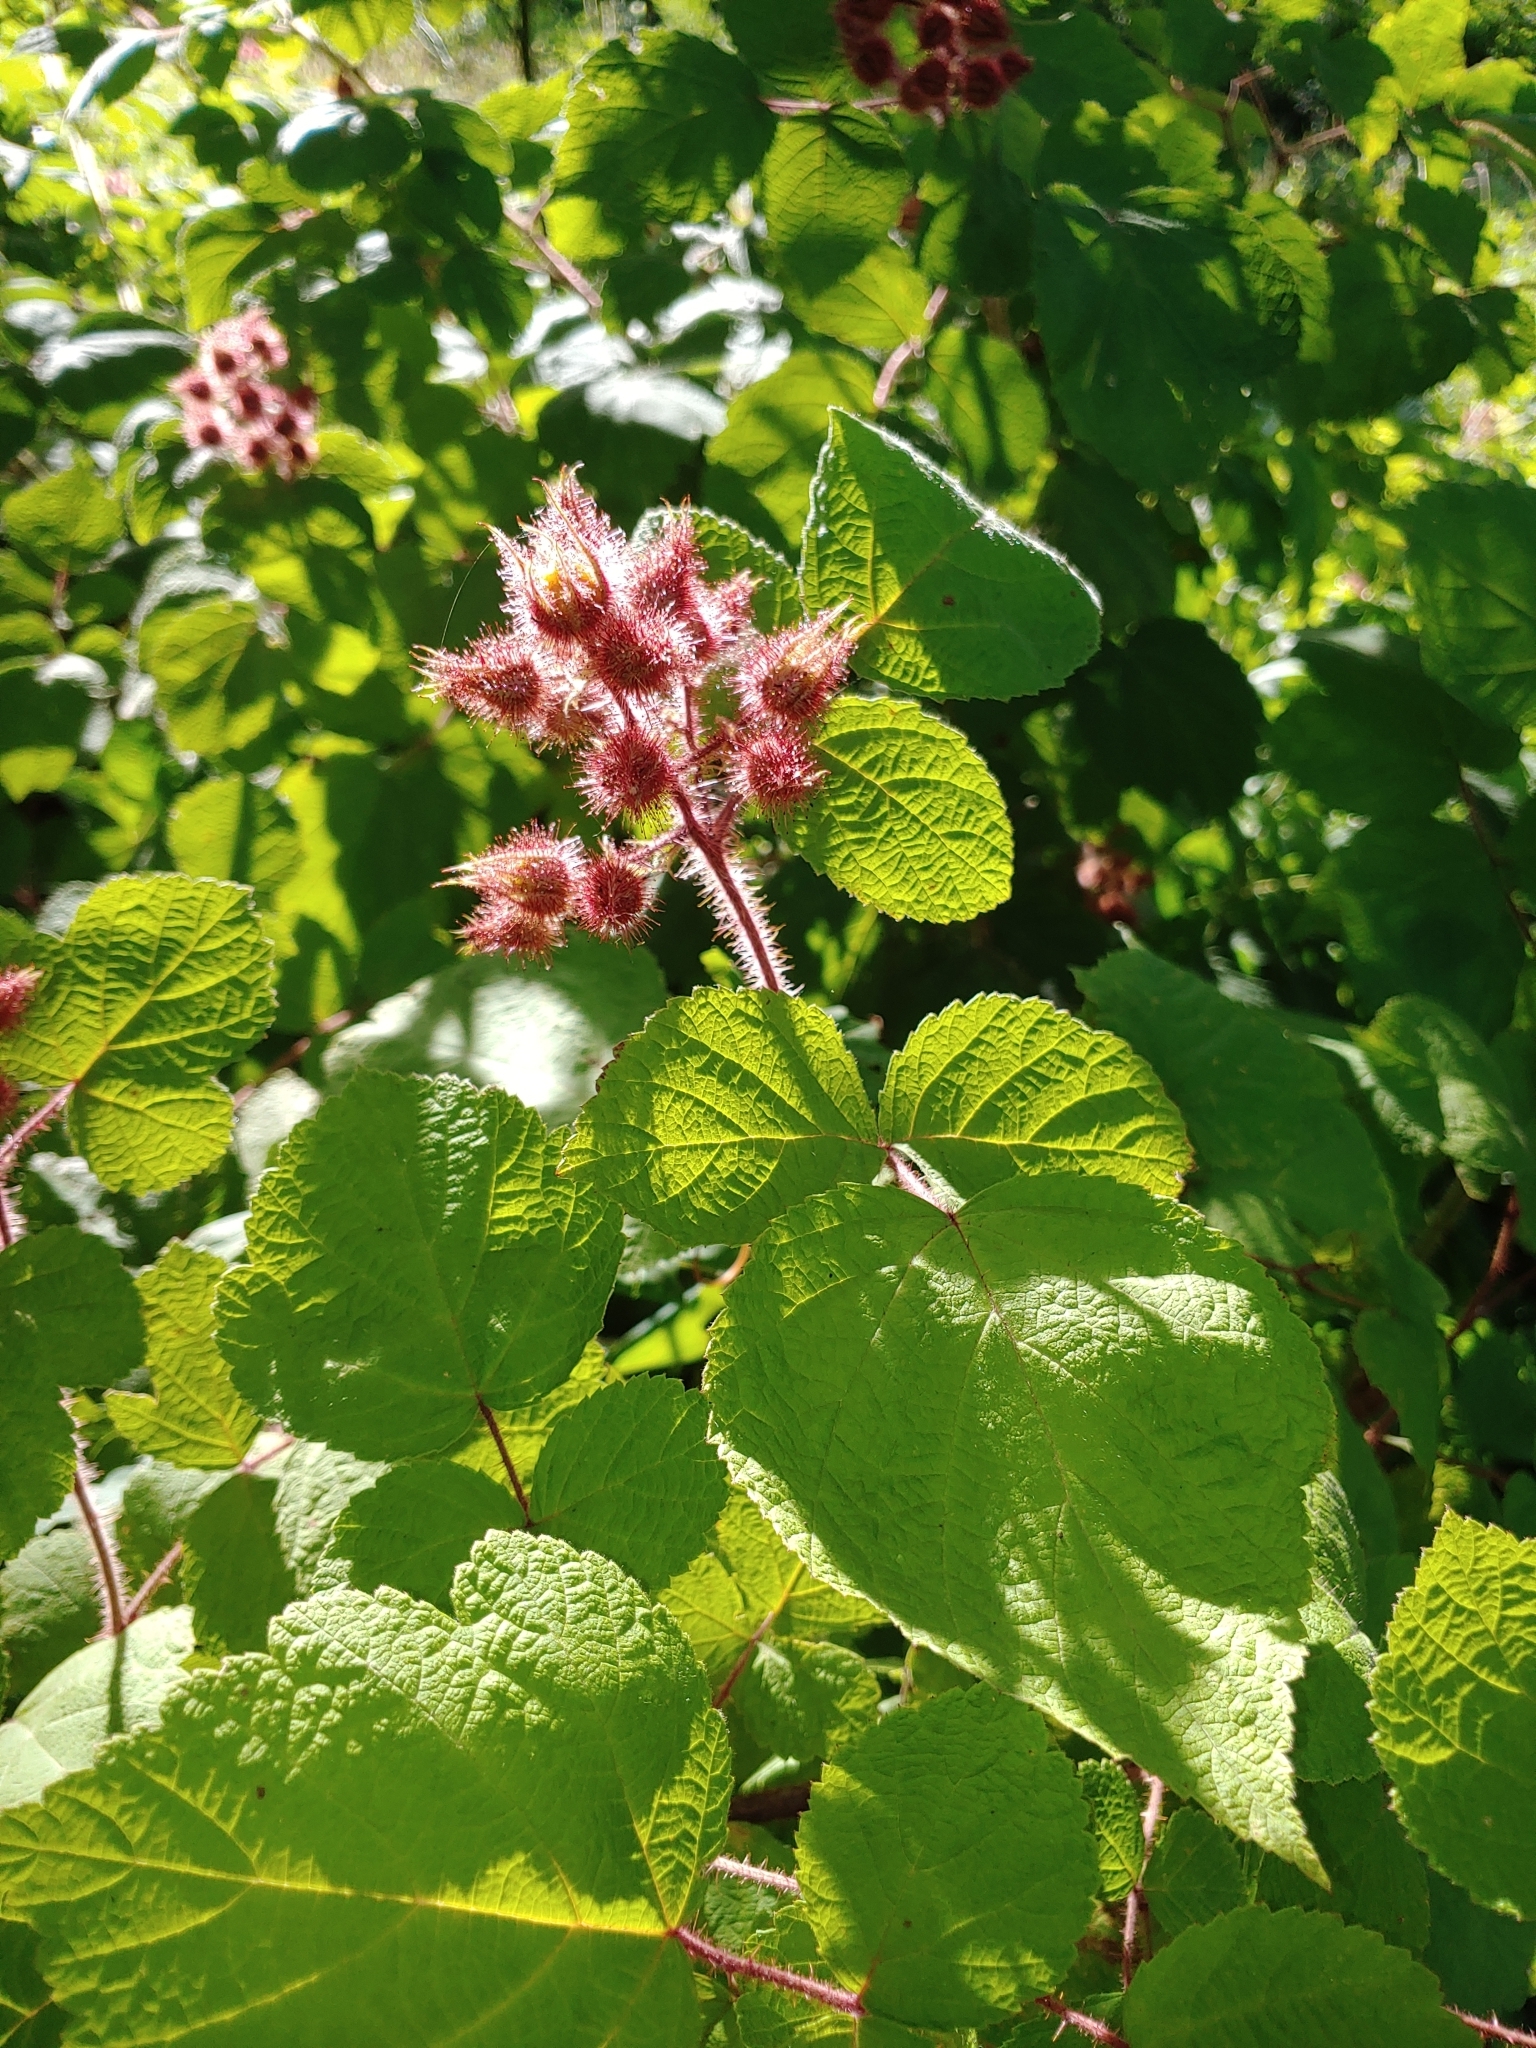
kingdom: Plantae
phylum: Tracheophyta
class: Magnoliopsida
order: Rosales
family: Rosaceae
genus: Rubus
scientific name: Rubus phoenicolasius
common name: Japanese wineberry
